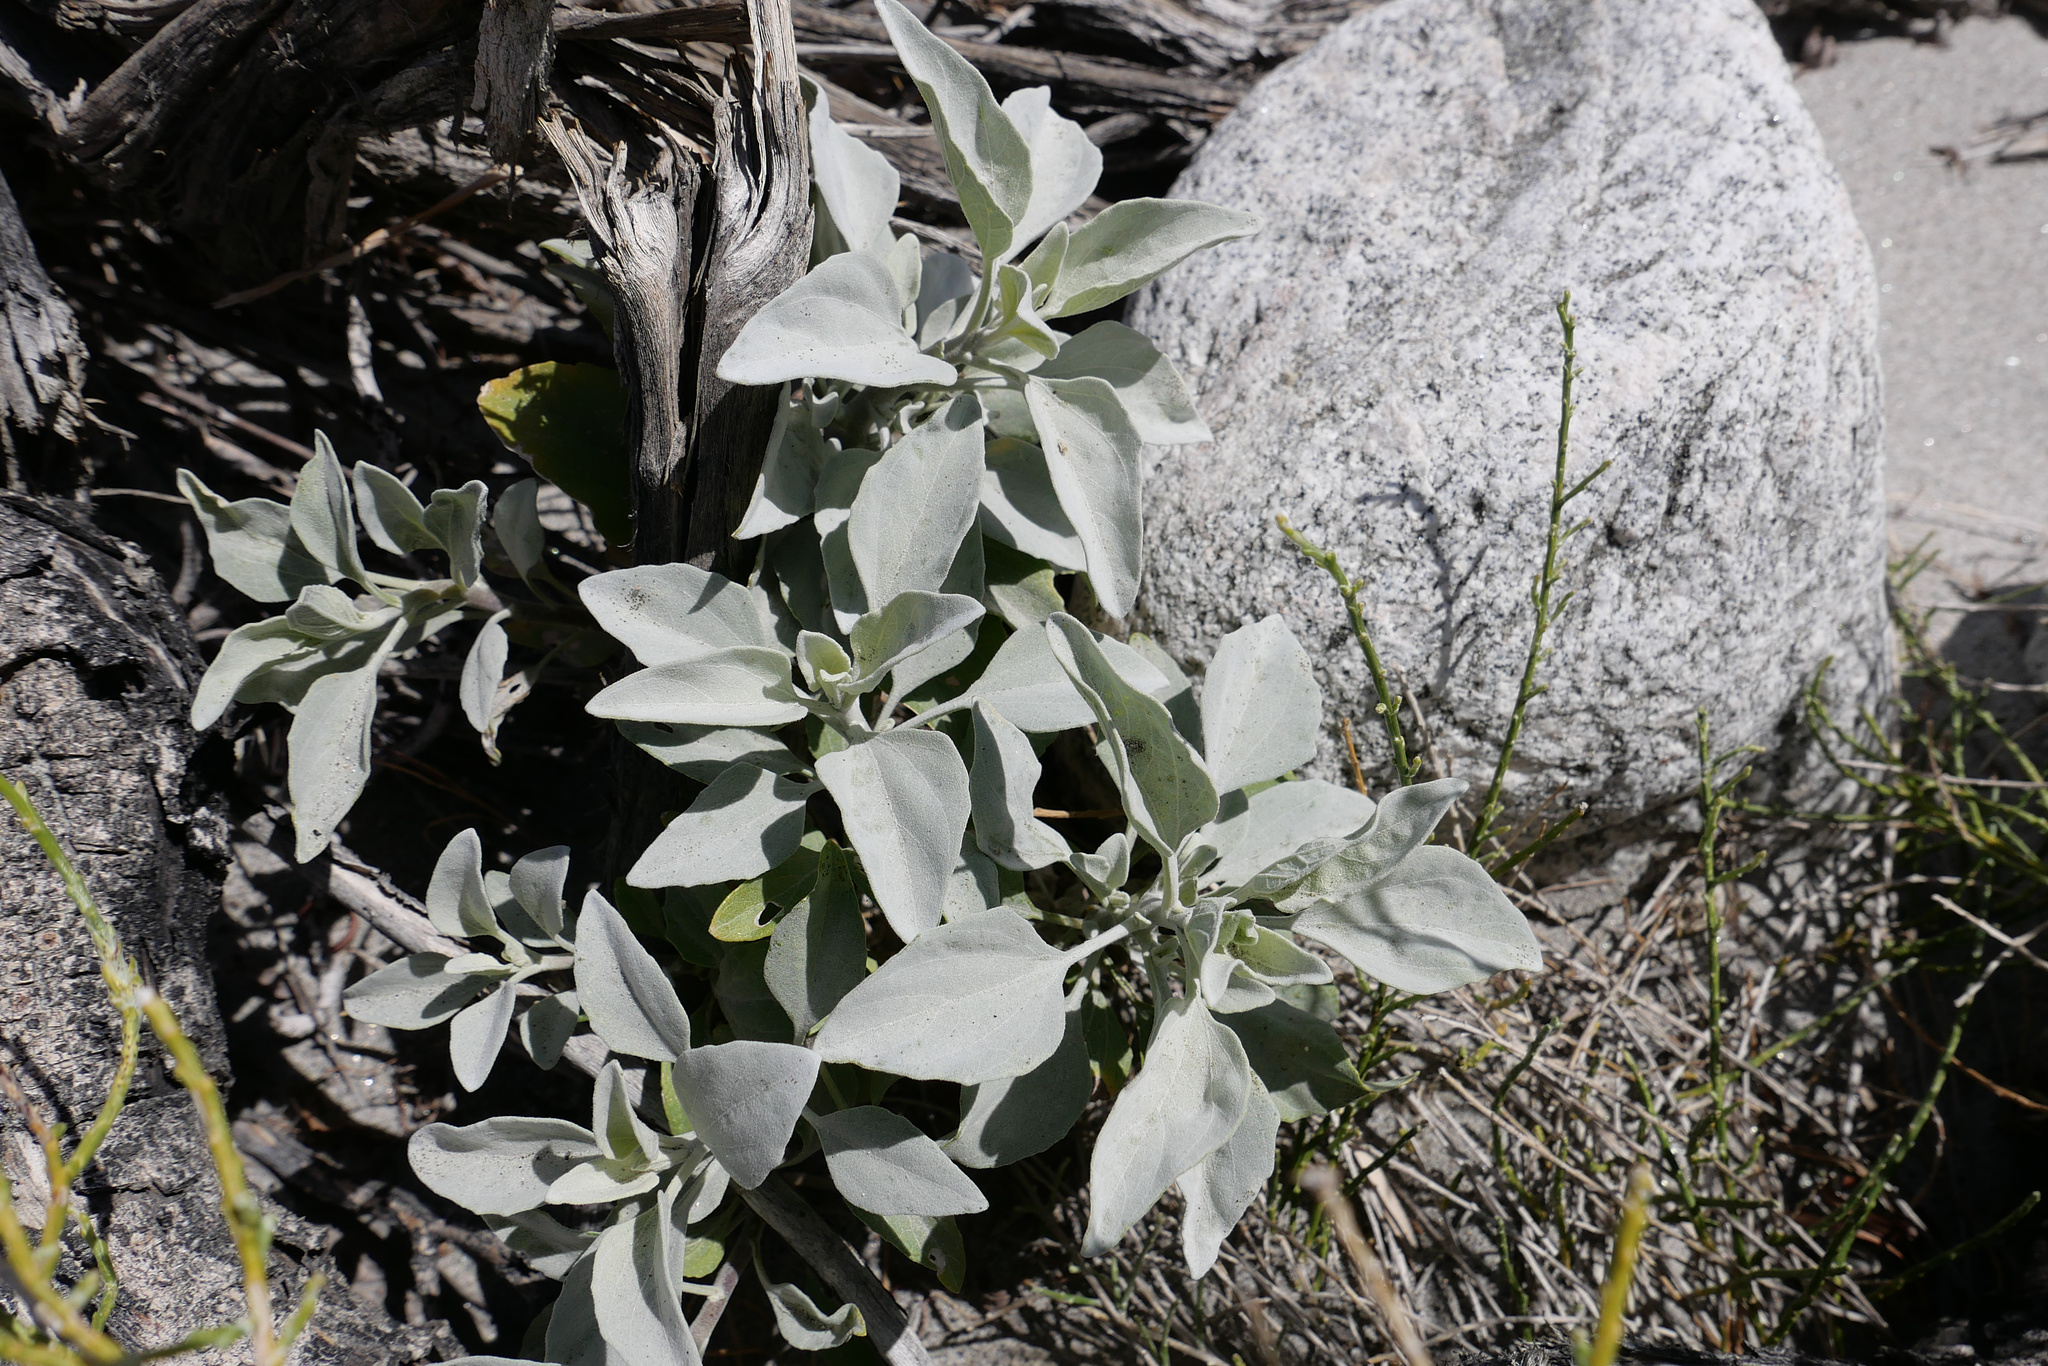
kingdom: Plantae
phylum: Tracheophyta
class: Magnoliopsida
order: Lamiales
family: Lamiaceae
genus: Salvia
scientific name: Salvia apiana
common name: White sage
